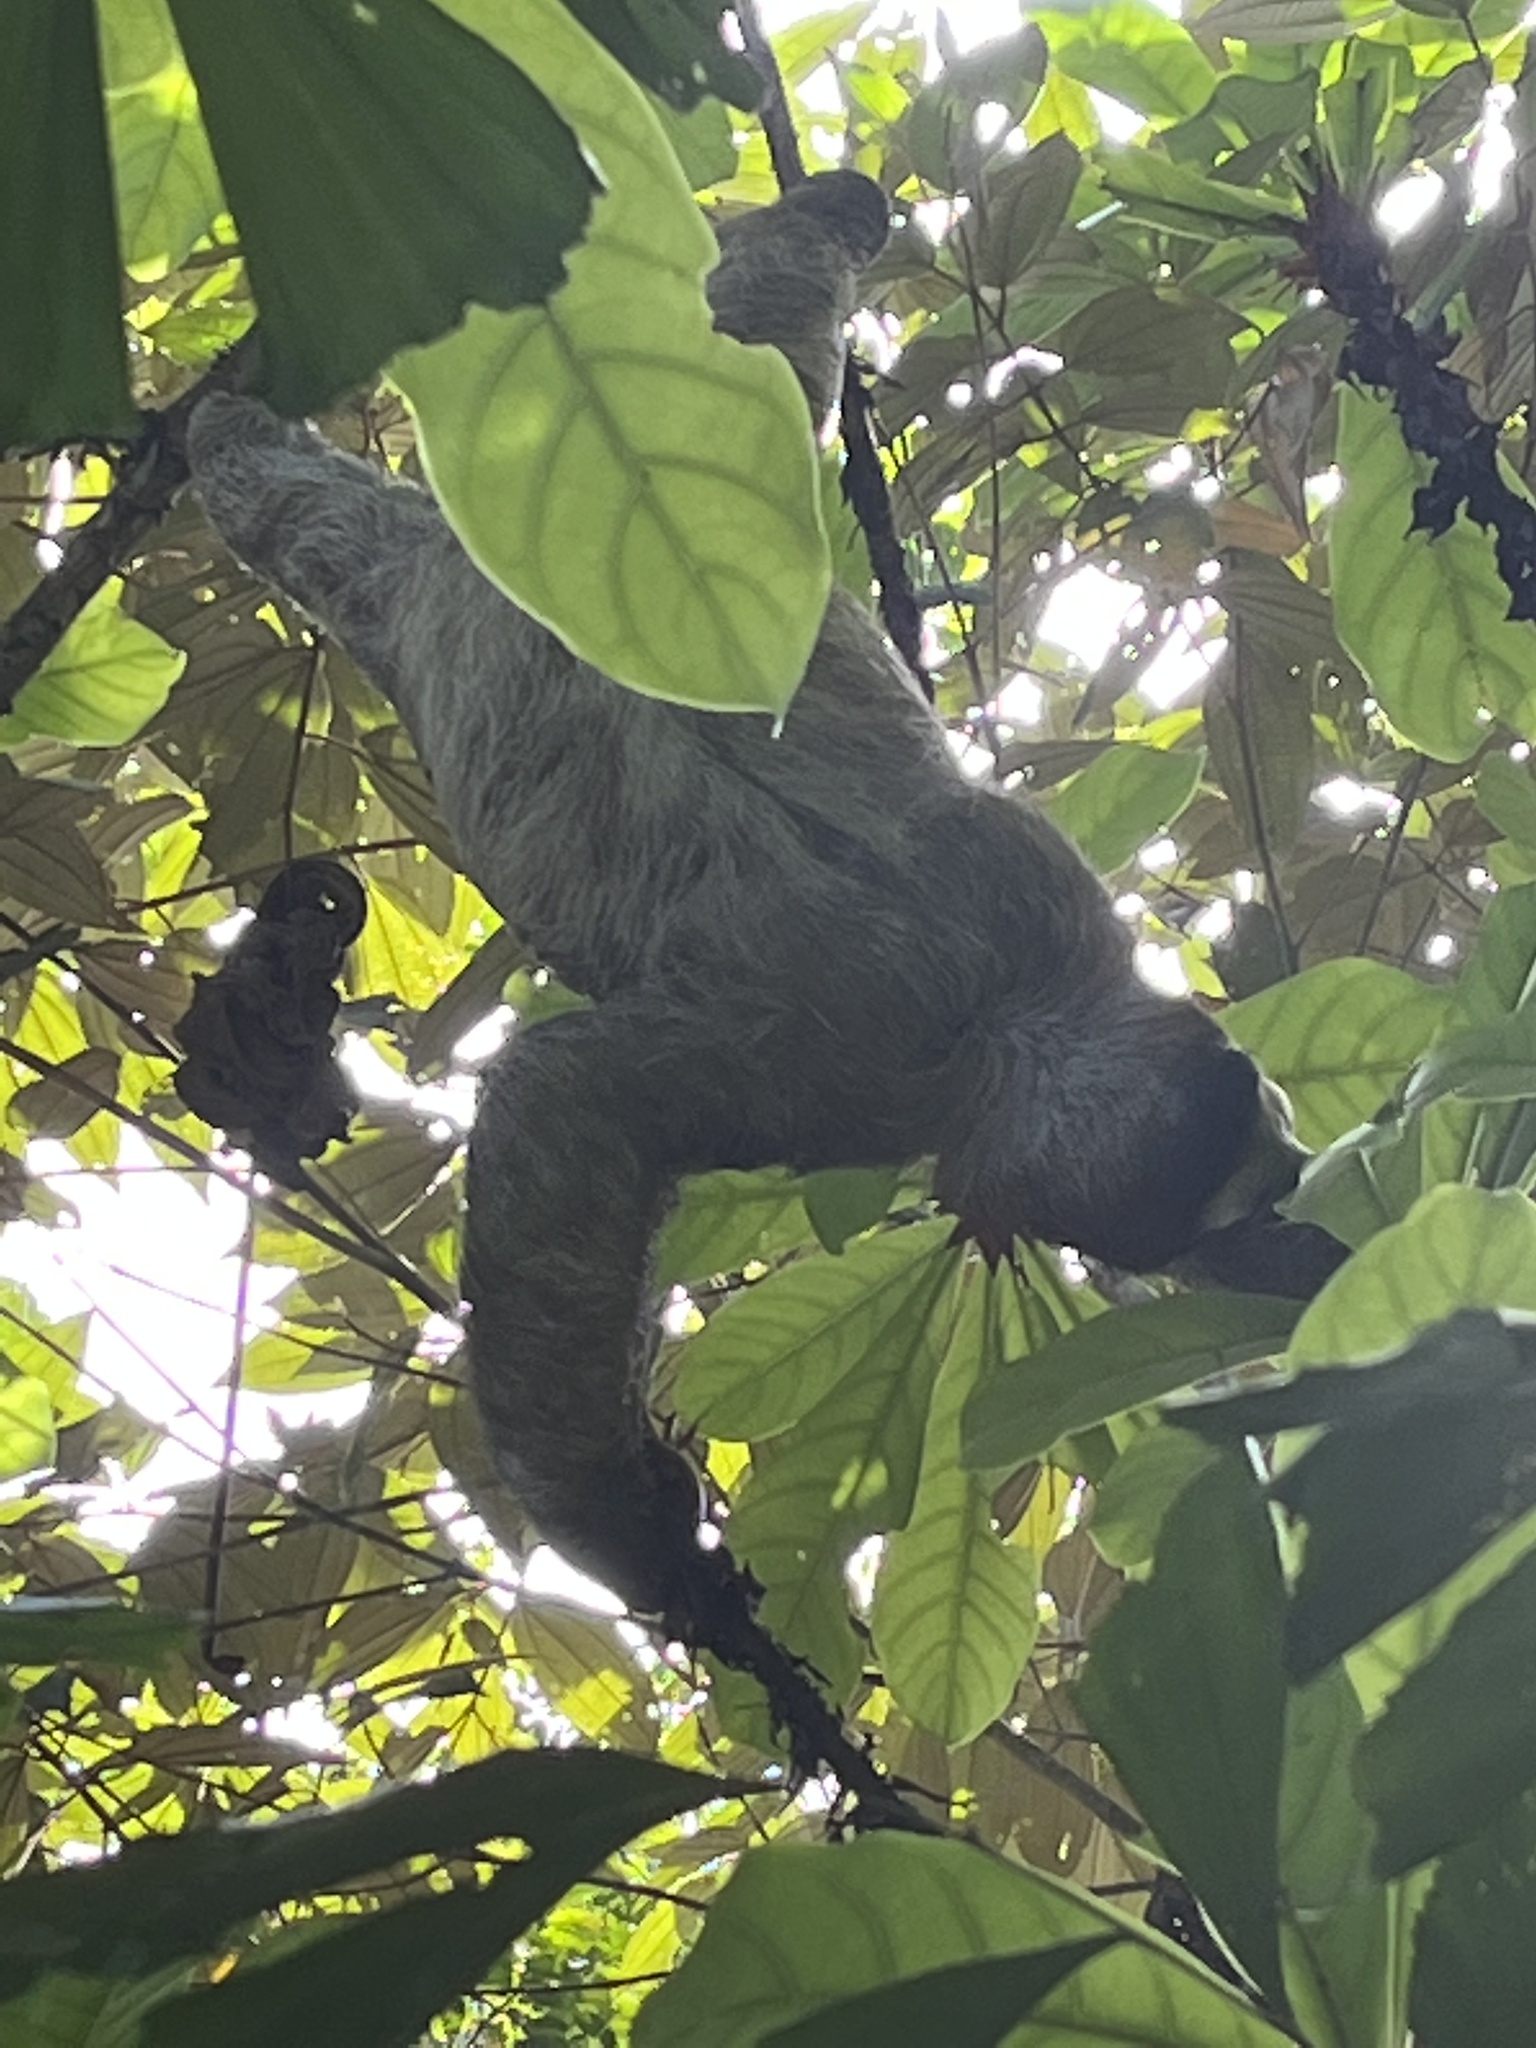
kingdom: Animalia
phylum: Chordata
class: Mammalia
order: Pilosa
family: Bradypodidae
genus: Bradypus
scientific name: Bradypus variegatus
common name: Brown-throated three-toed sloth
